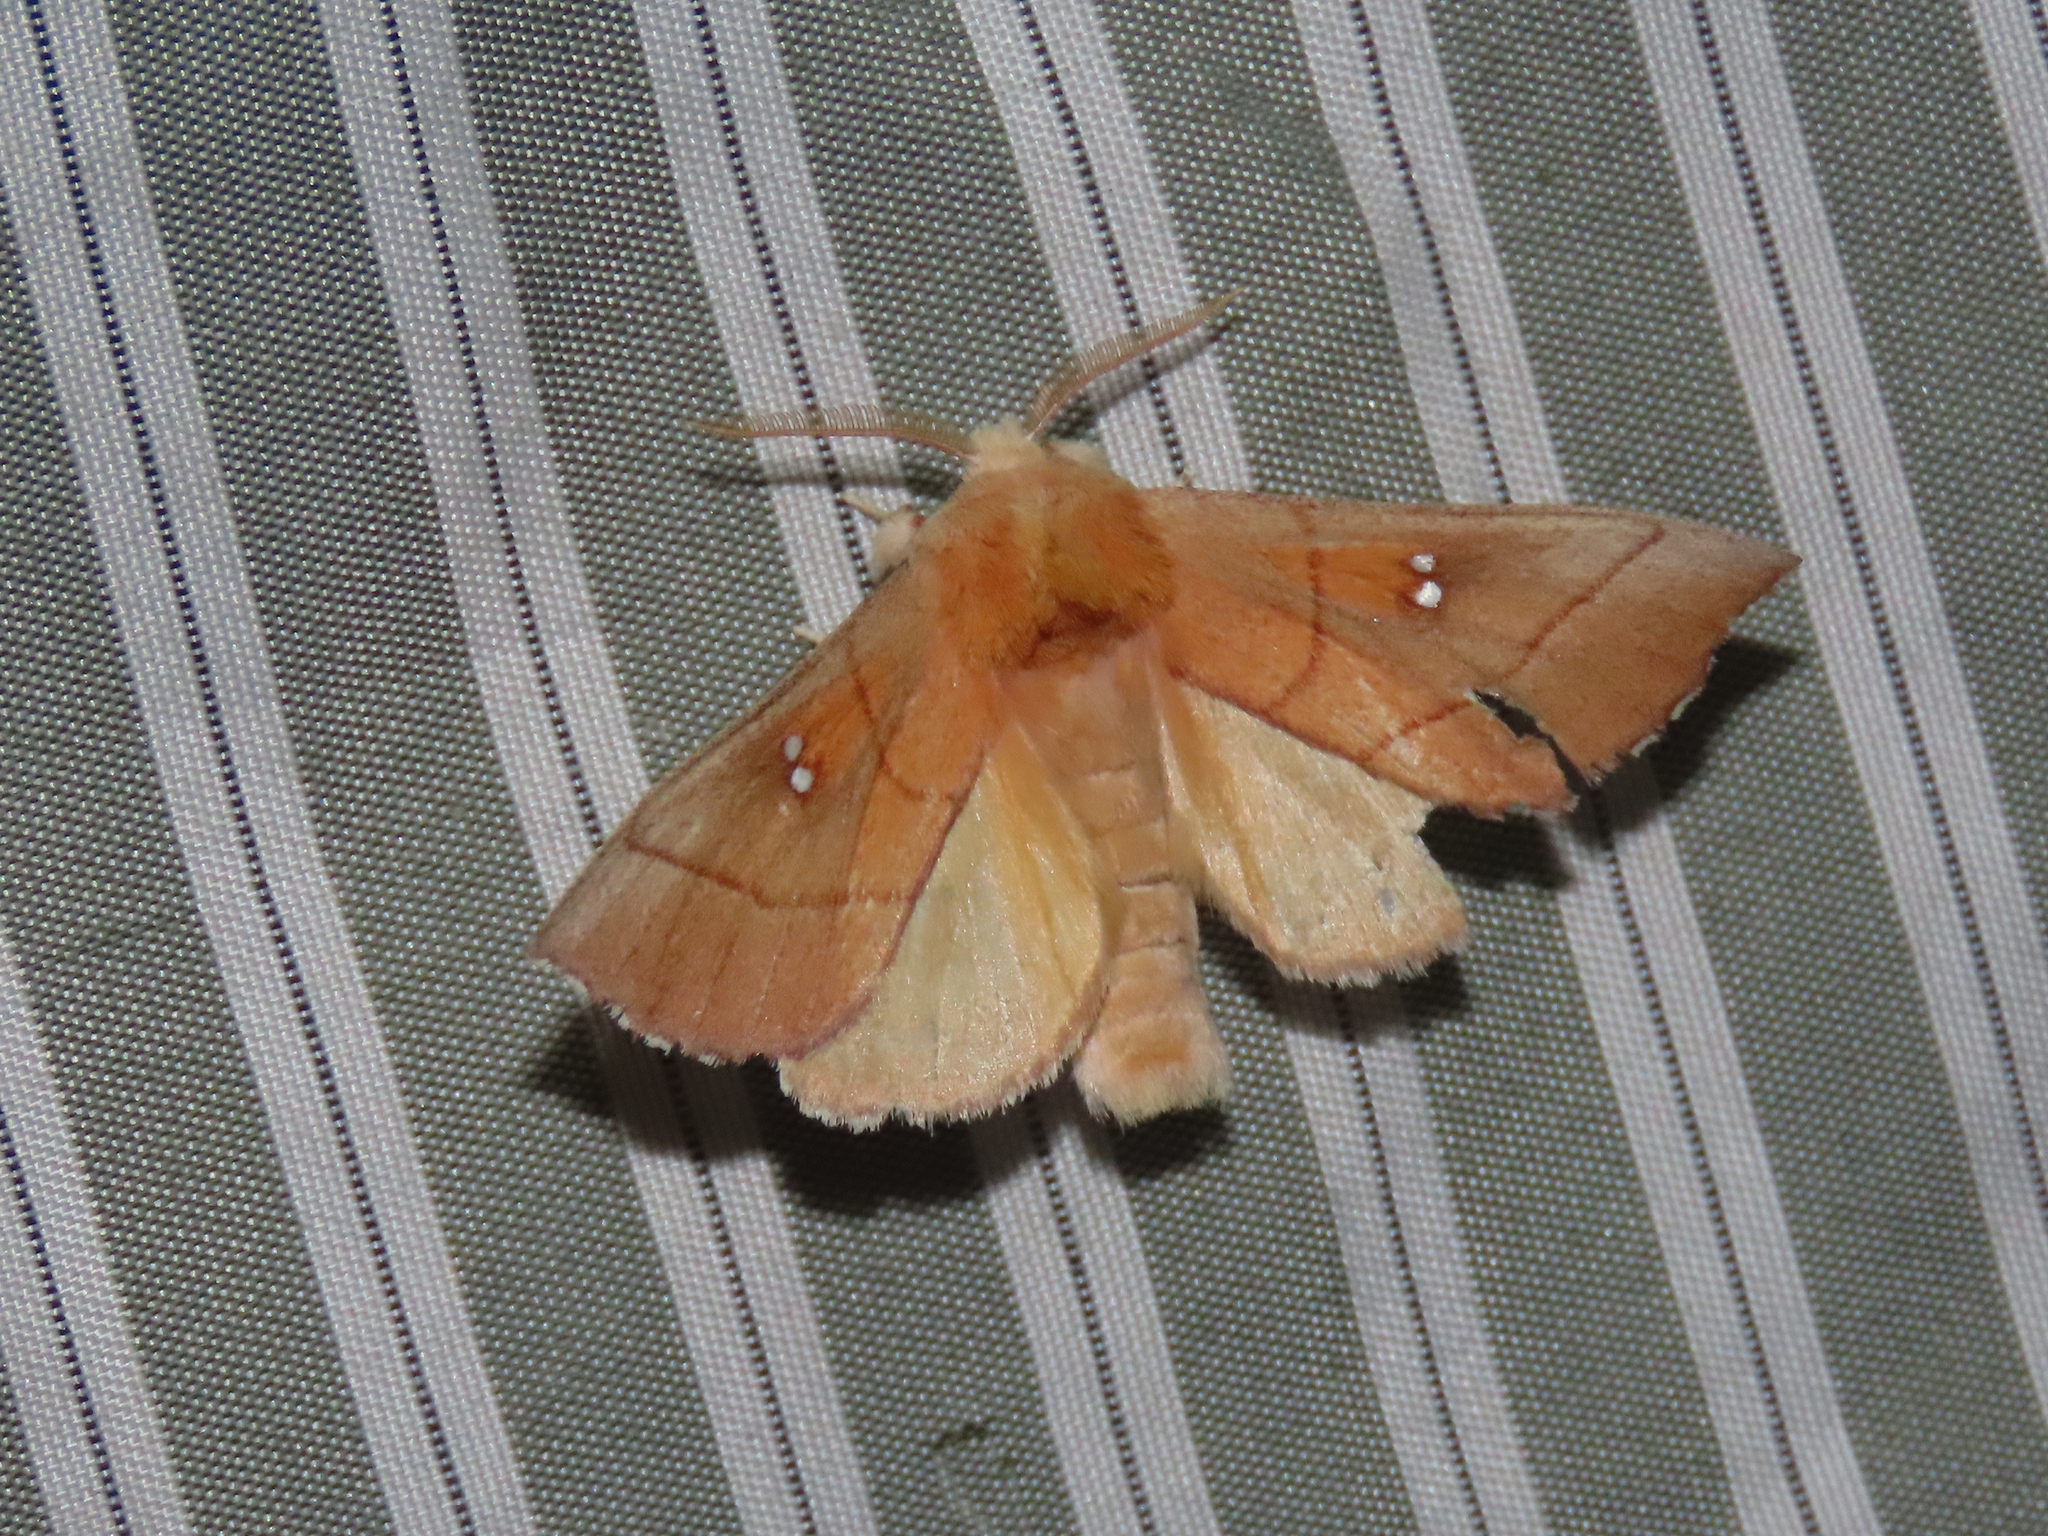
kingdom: Animalia
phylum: Arthropoda
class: Insecta
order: Lepidoptera
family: Notodontidae
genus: Nadata
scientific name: Nadata gibbosa
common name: White-dotted prominent
